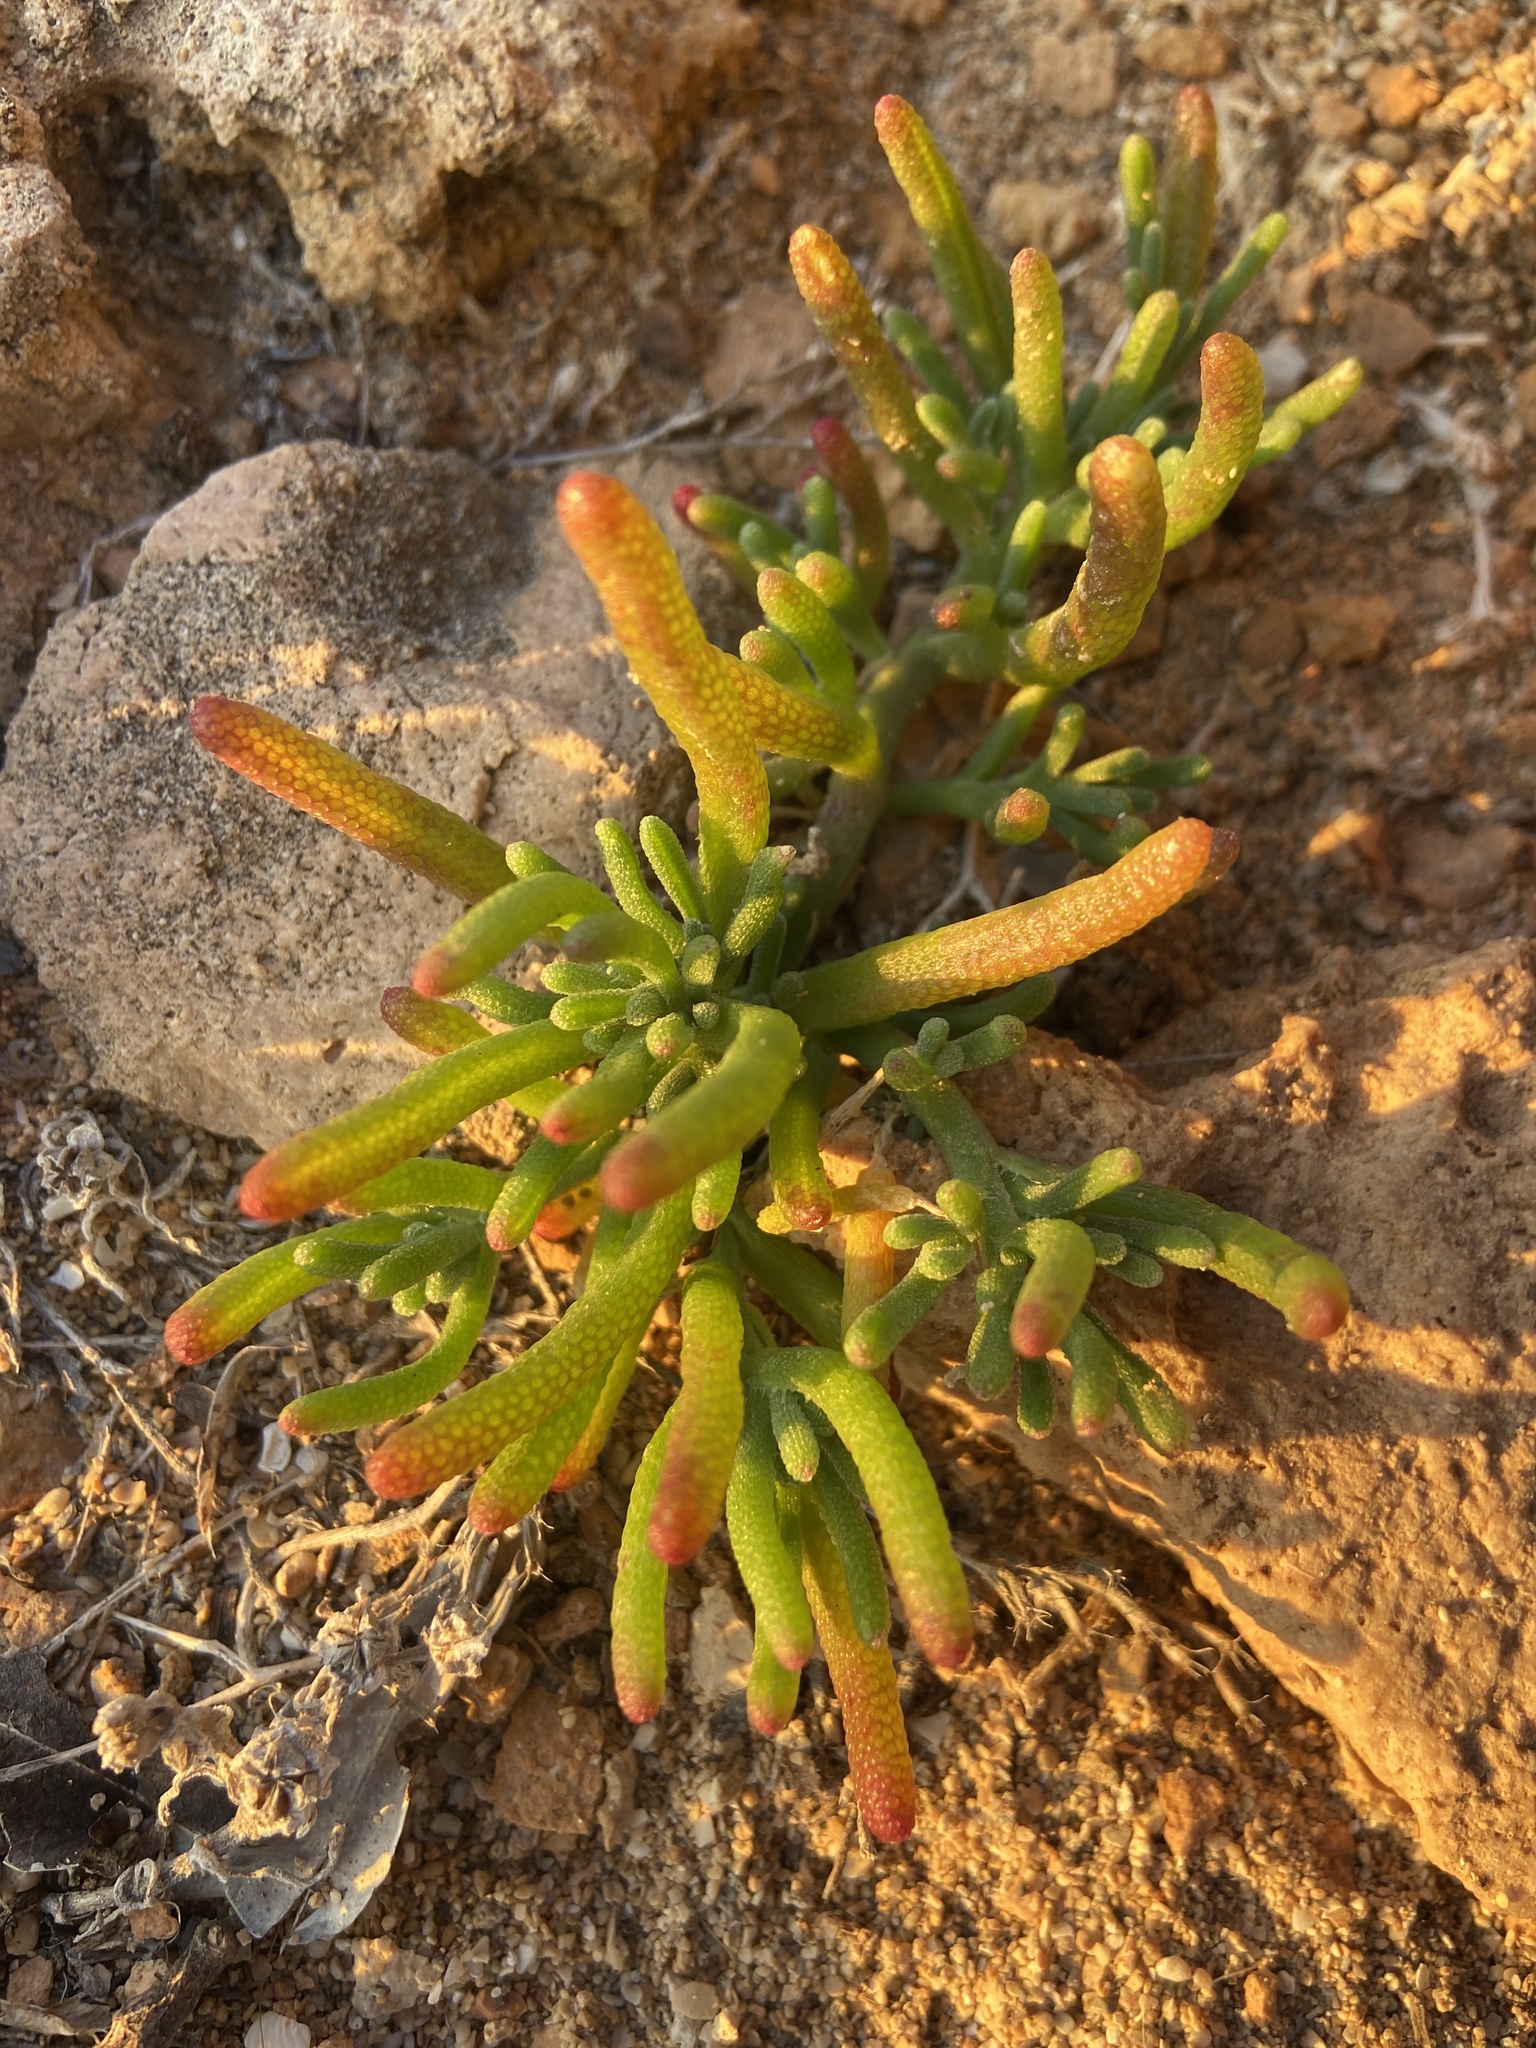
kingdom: Plantae
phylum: Tracheophyta
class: Magnoliopsida
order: Caryophyllales
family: Aizoaceae
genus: Mesembryanthemum
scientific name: Mesembryanthemum nodiflorum
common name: Slenderleaf iceplant
